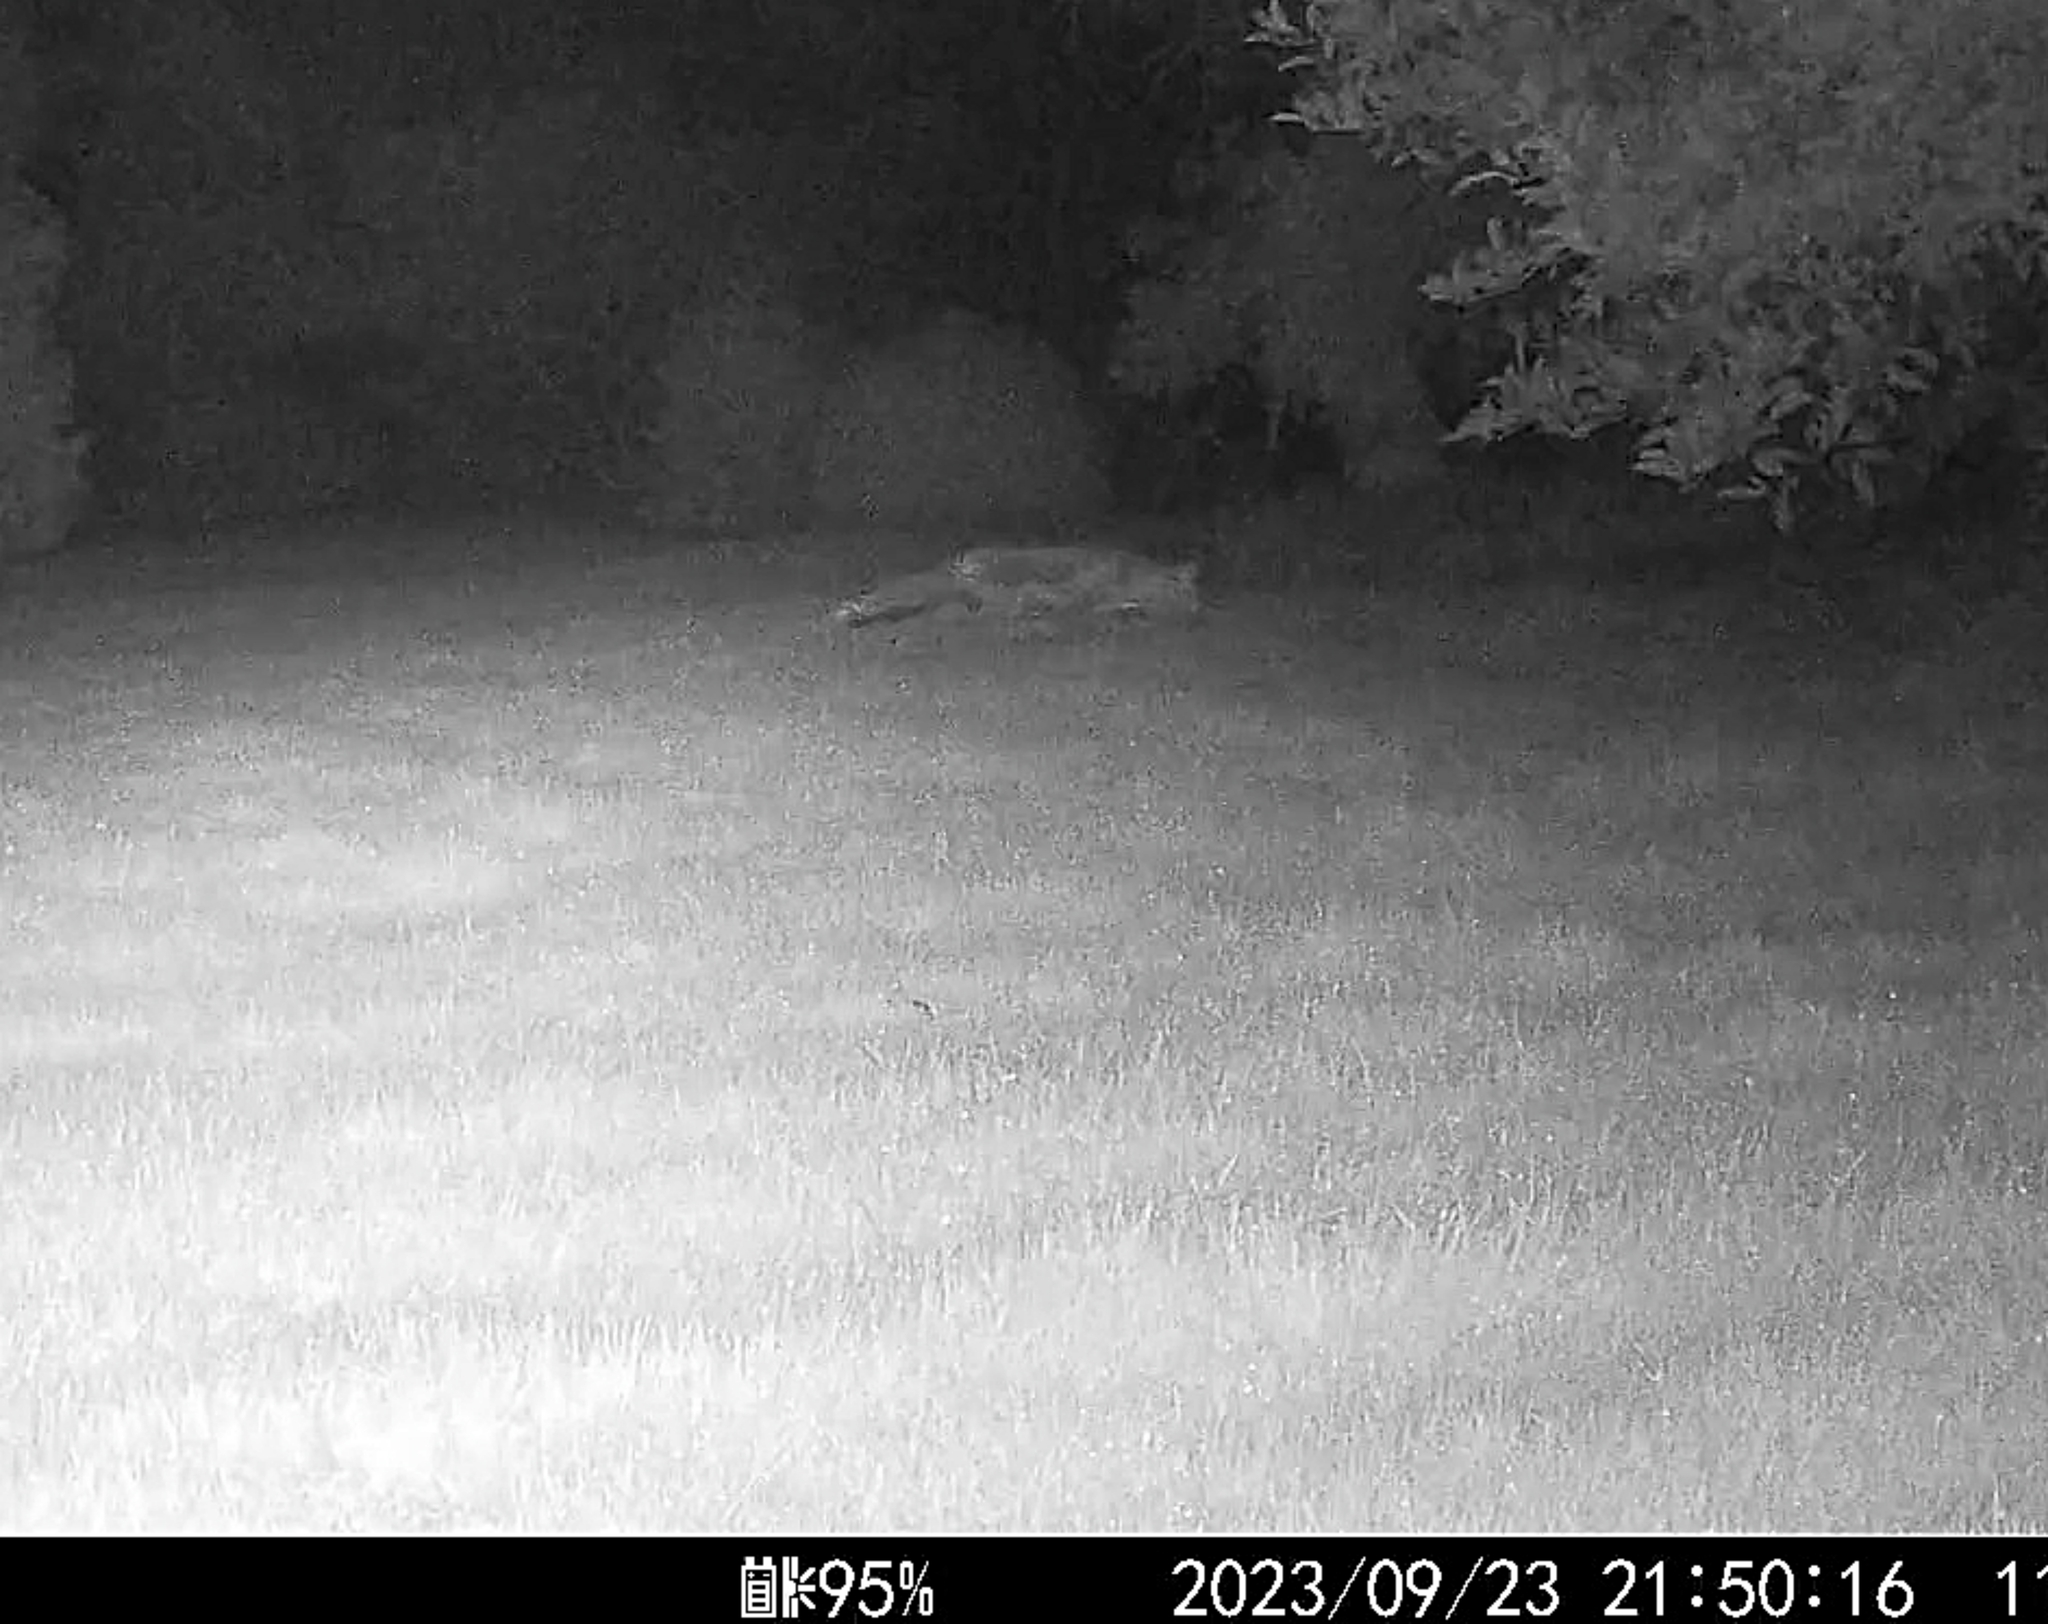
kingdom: Animalia
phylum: Chordata
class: Mammalia
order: Carnivora
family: Canidae
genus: Vulpes
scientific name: Vulpes vulpes
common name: Red fox
